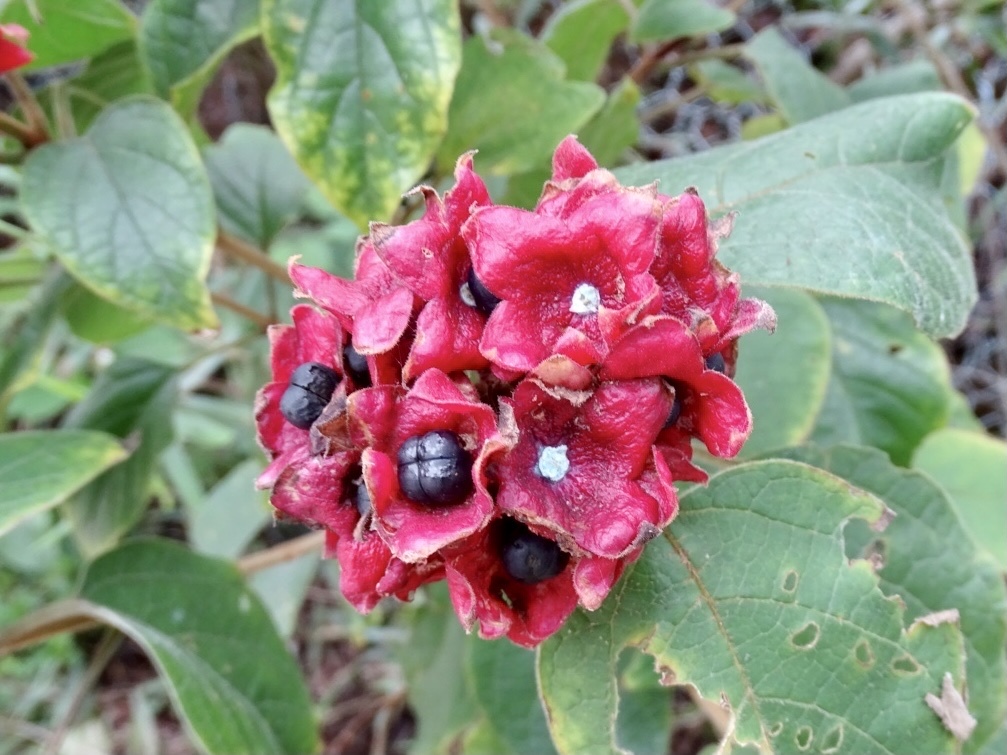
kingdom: Plantae
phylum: Tracheophyta
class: Magnoliopsida
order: Lamiales
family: Lamiaceae
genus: Clerodendrum
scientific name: Clerodendrum canescens
